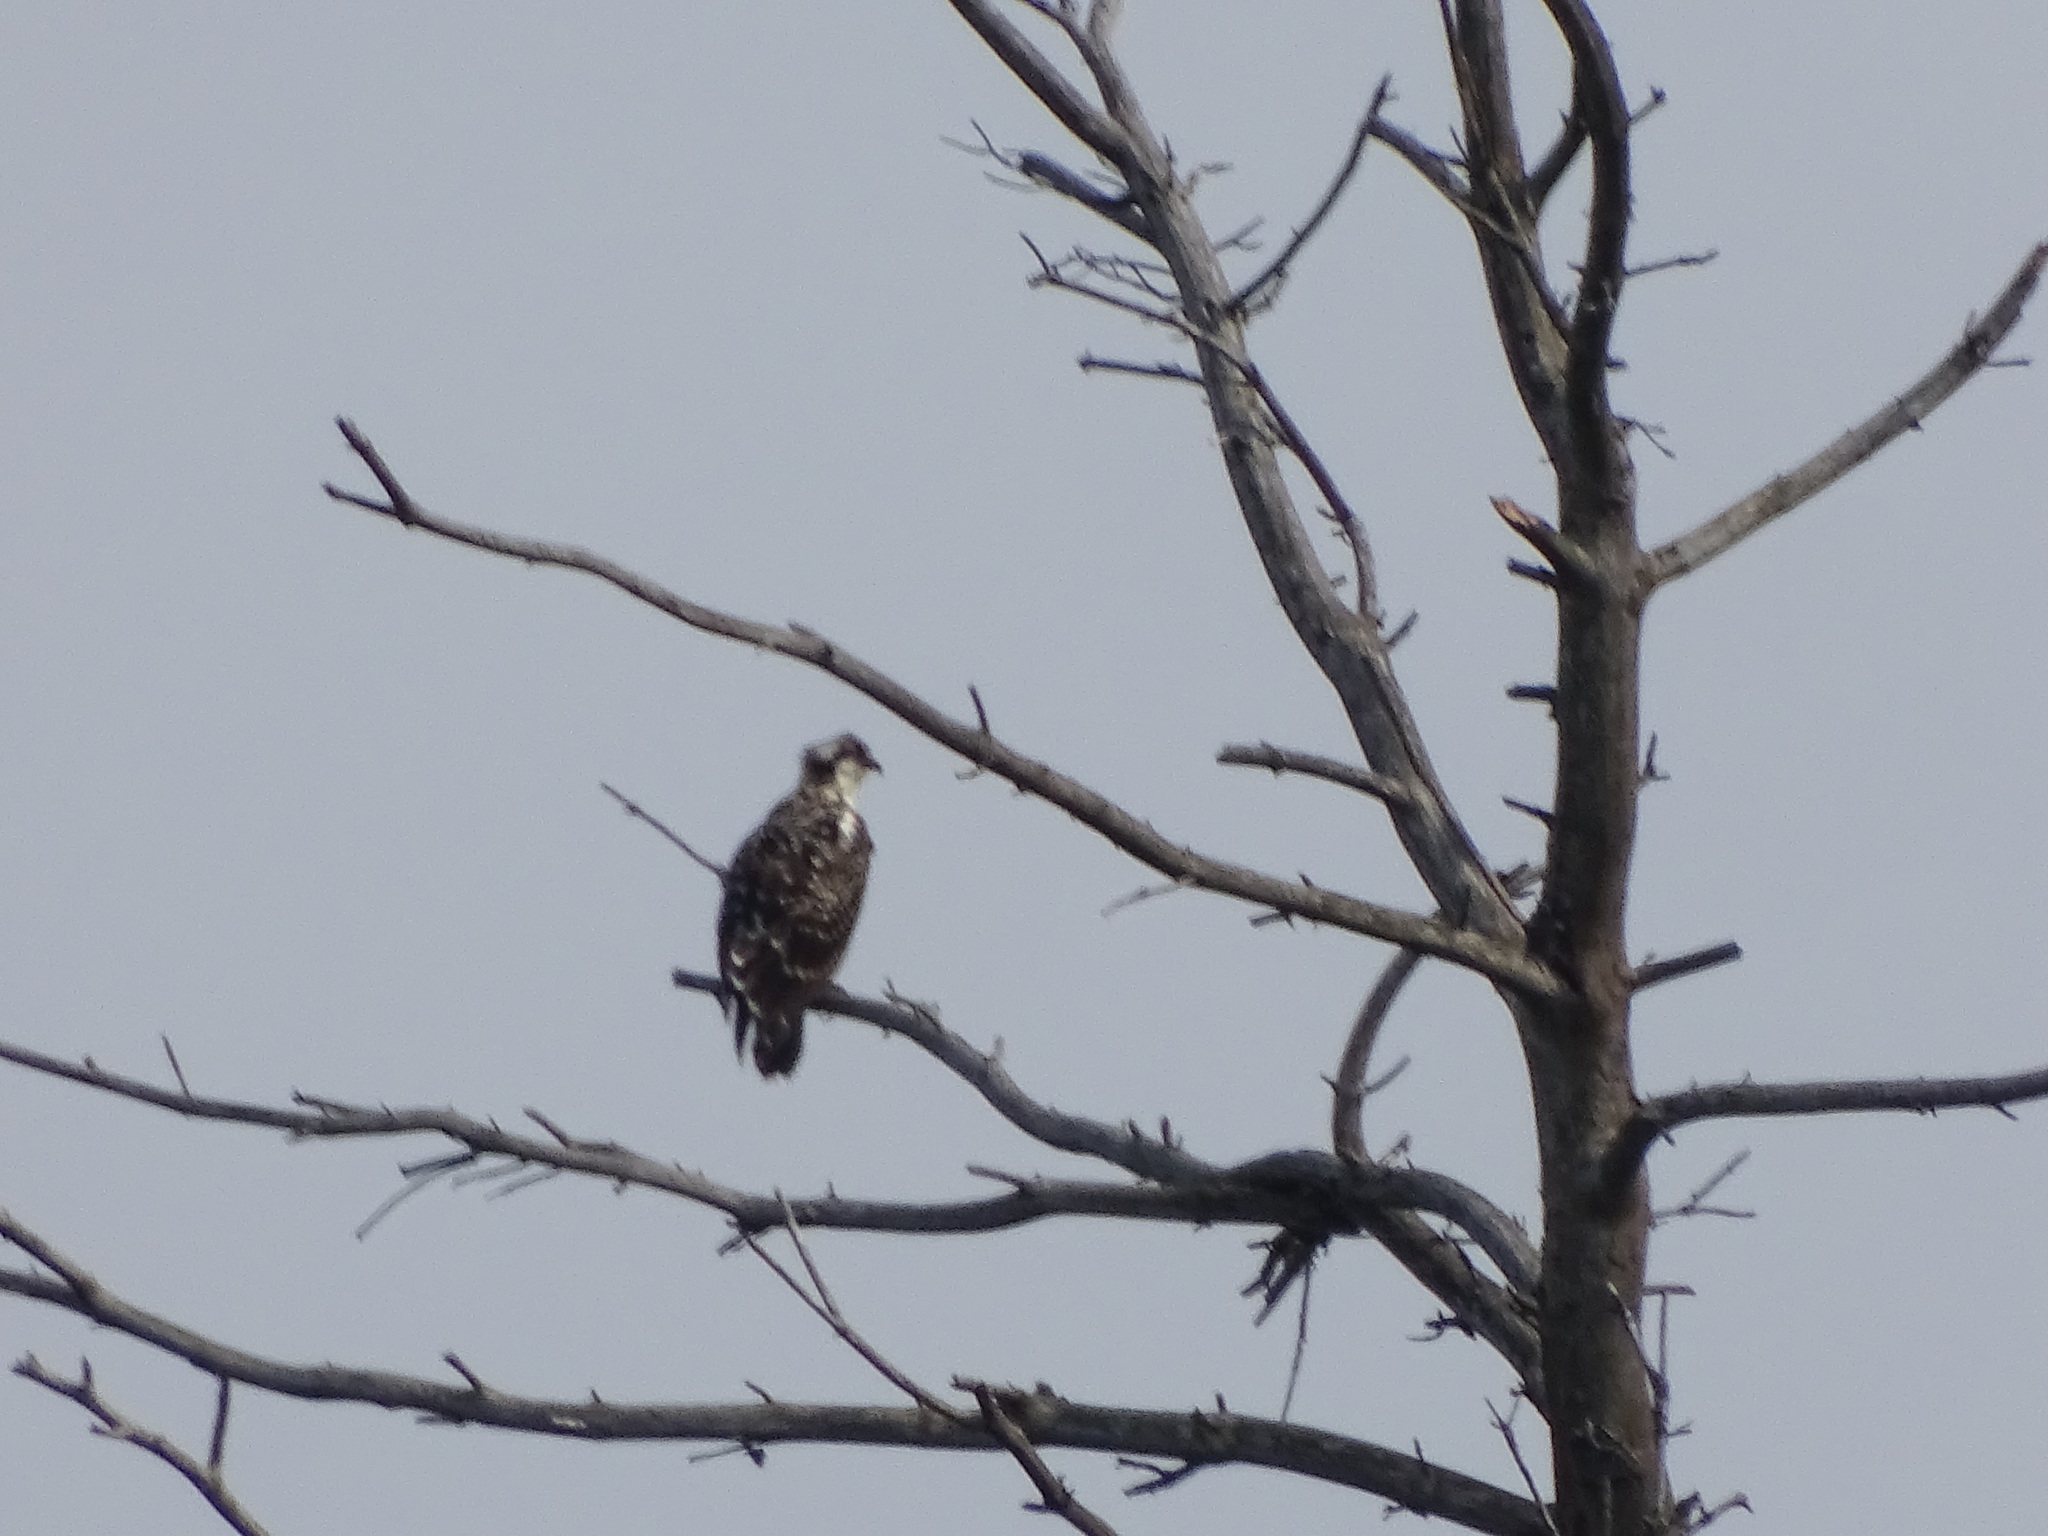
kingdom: Animalia
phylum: Chordata
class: Aves
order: Accipitriformes
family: Pandionidae
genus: Pandion
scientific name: Pandion haliaetus
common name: Osprey
